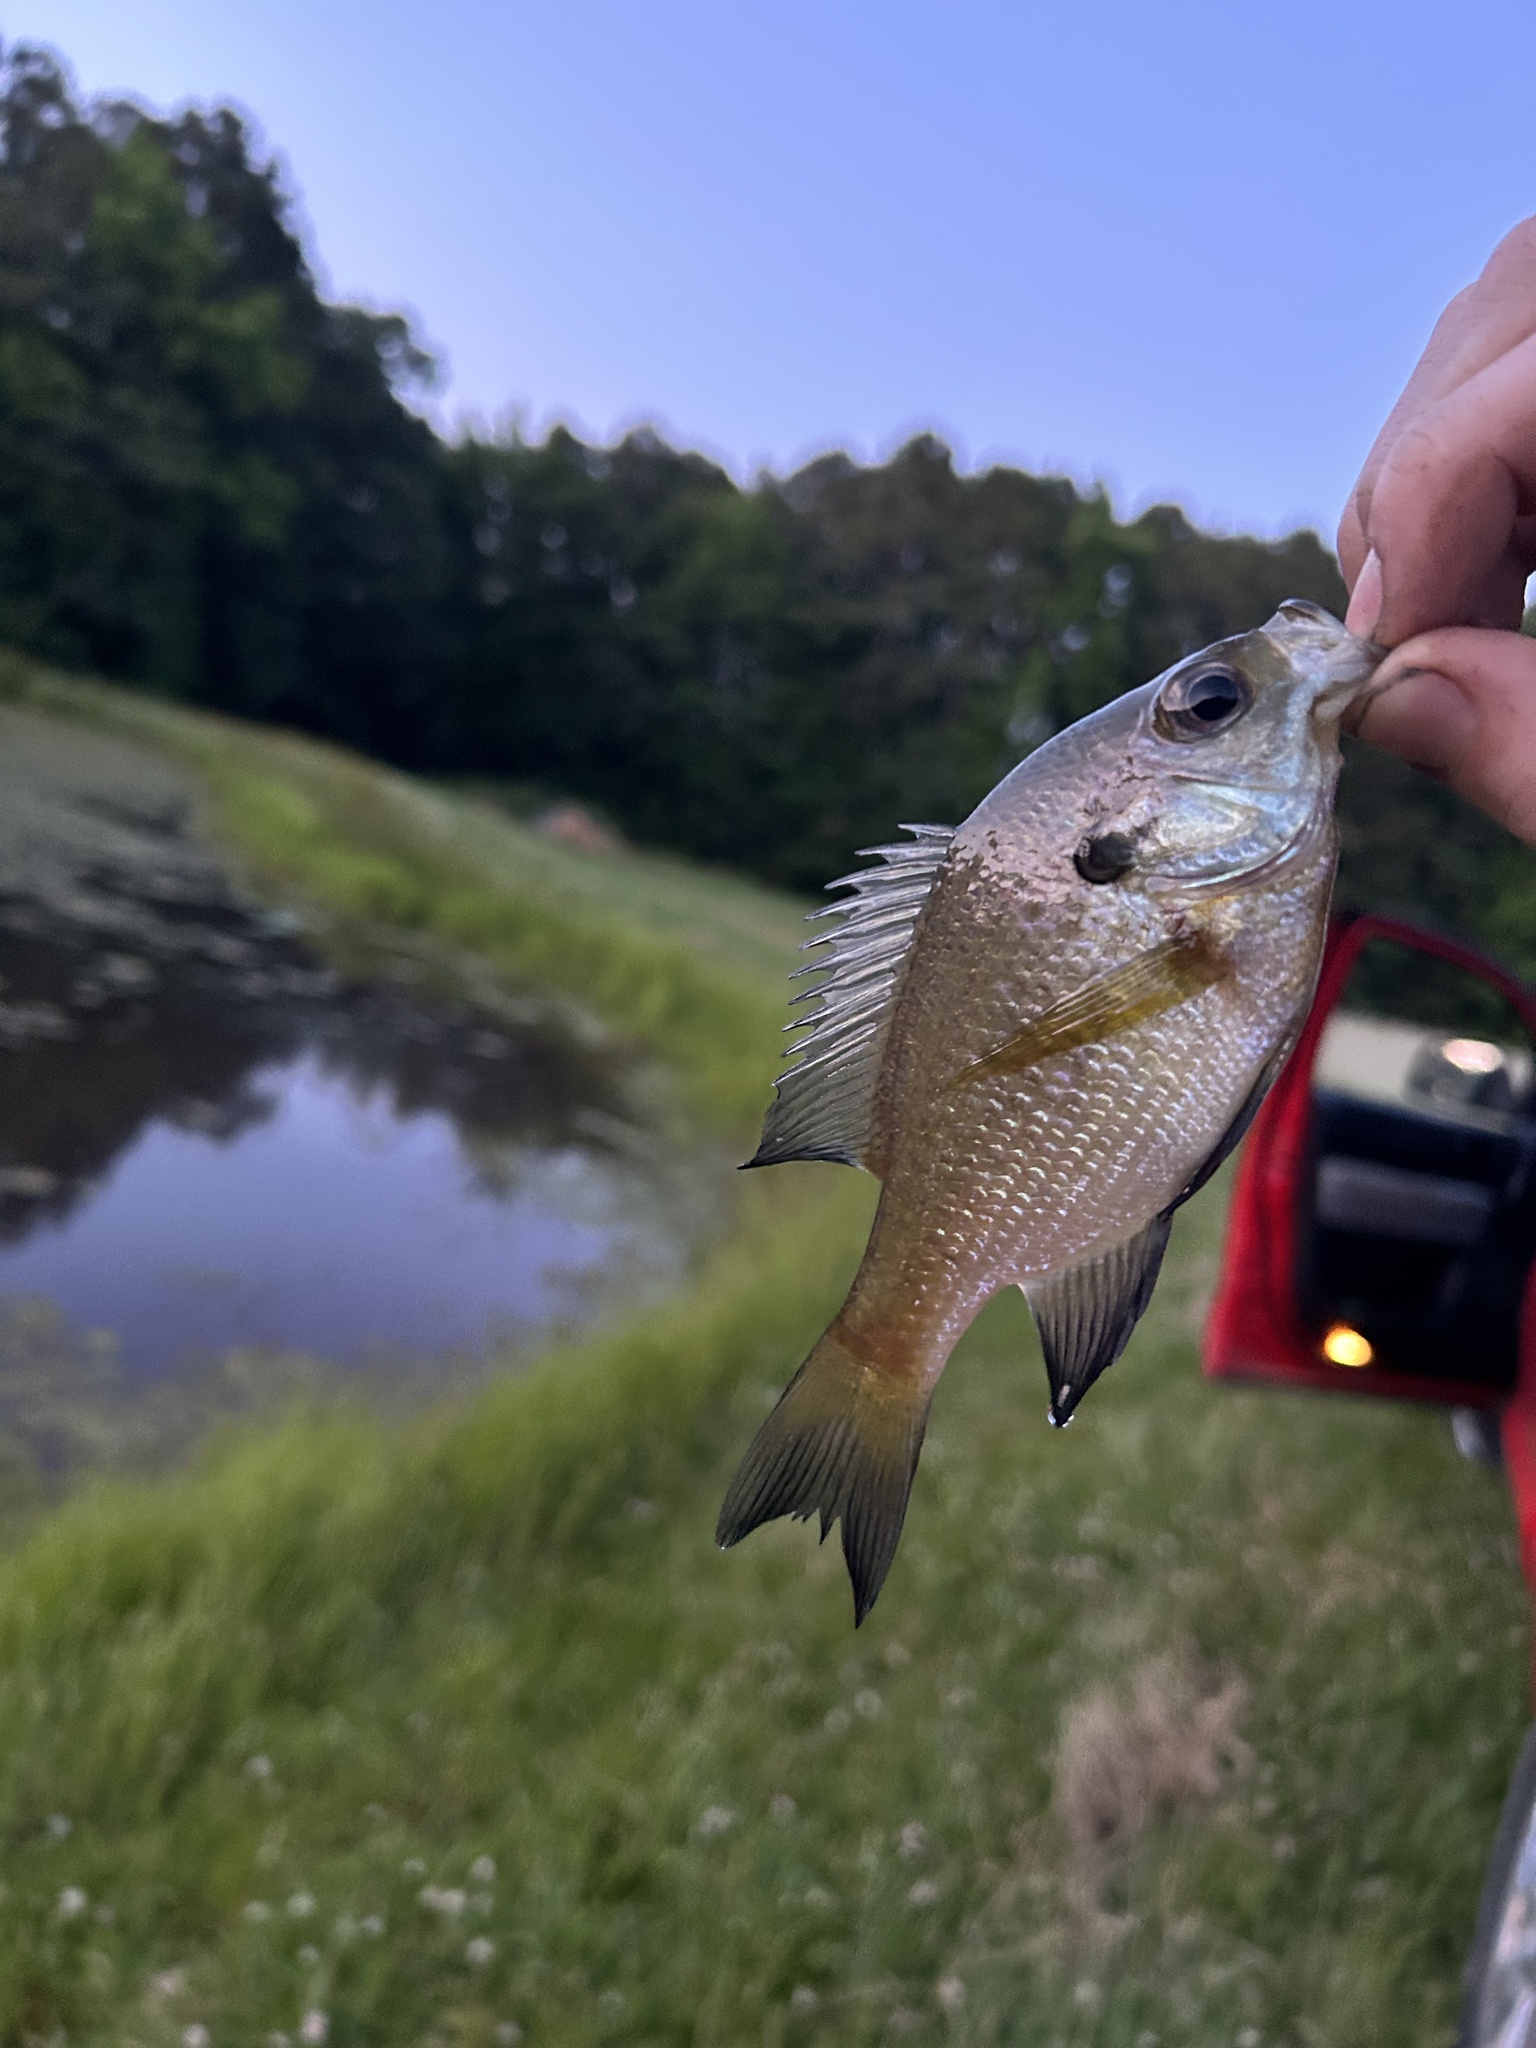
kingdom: Animalia
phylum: Chordata
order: Perciformes
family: Centrarchidae
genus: Lepomis
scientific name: Lepomis macrochirus
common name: Bluegill
